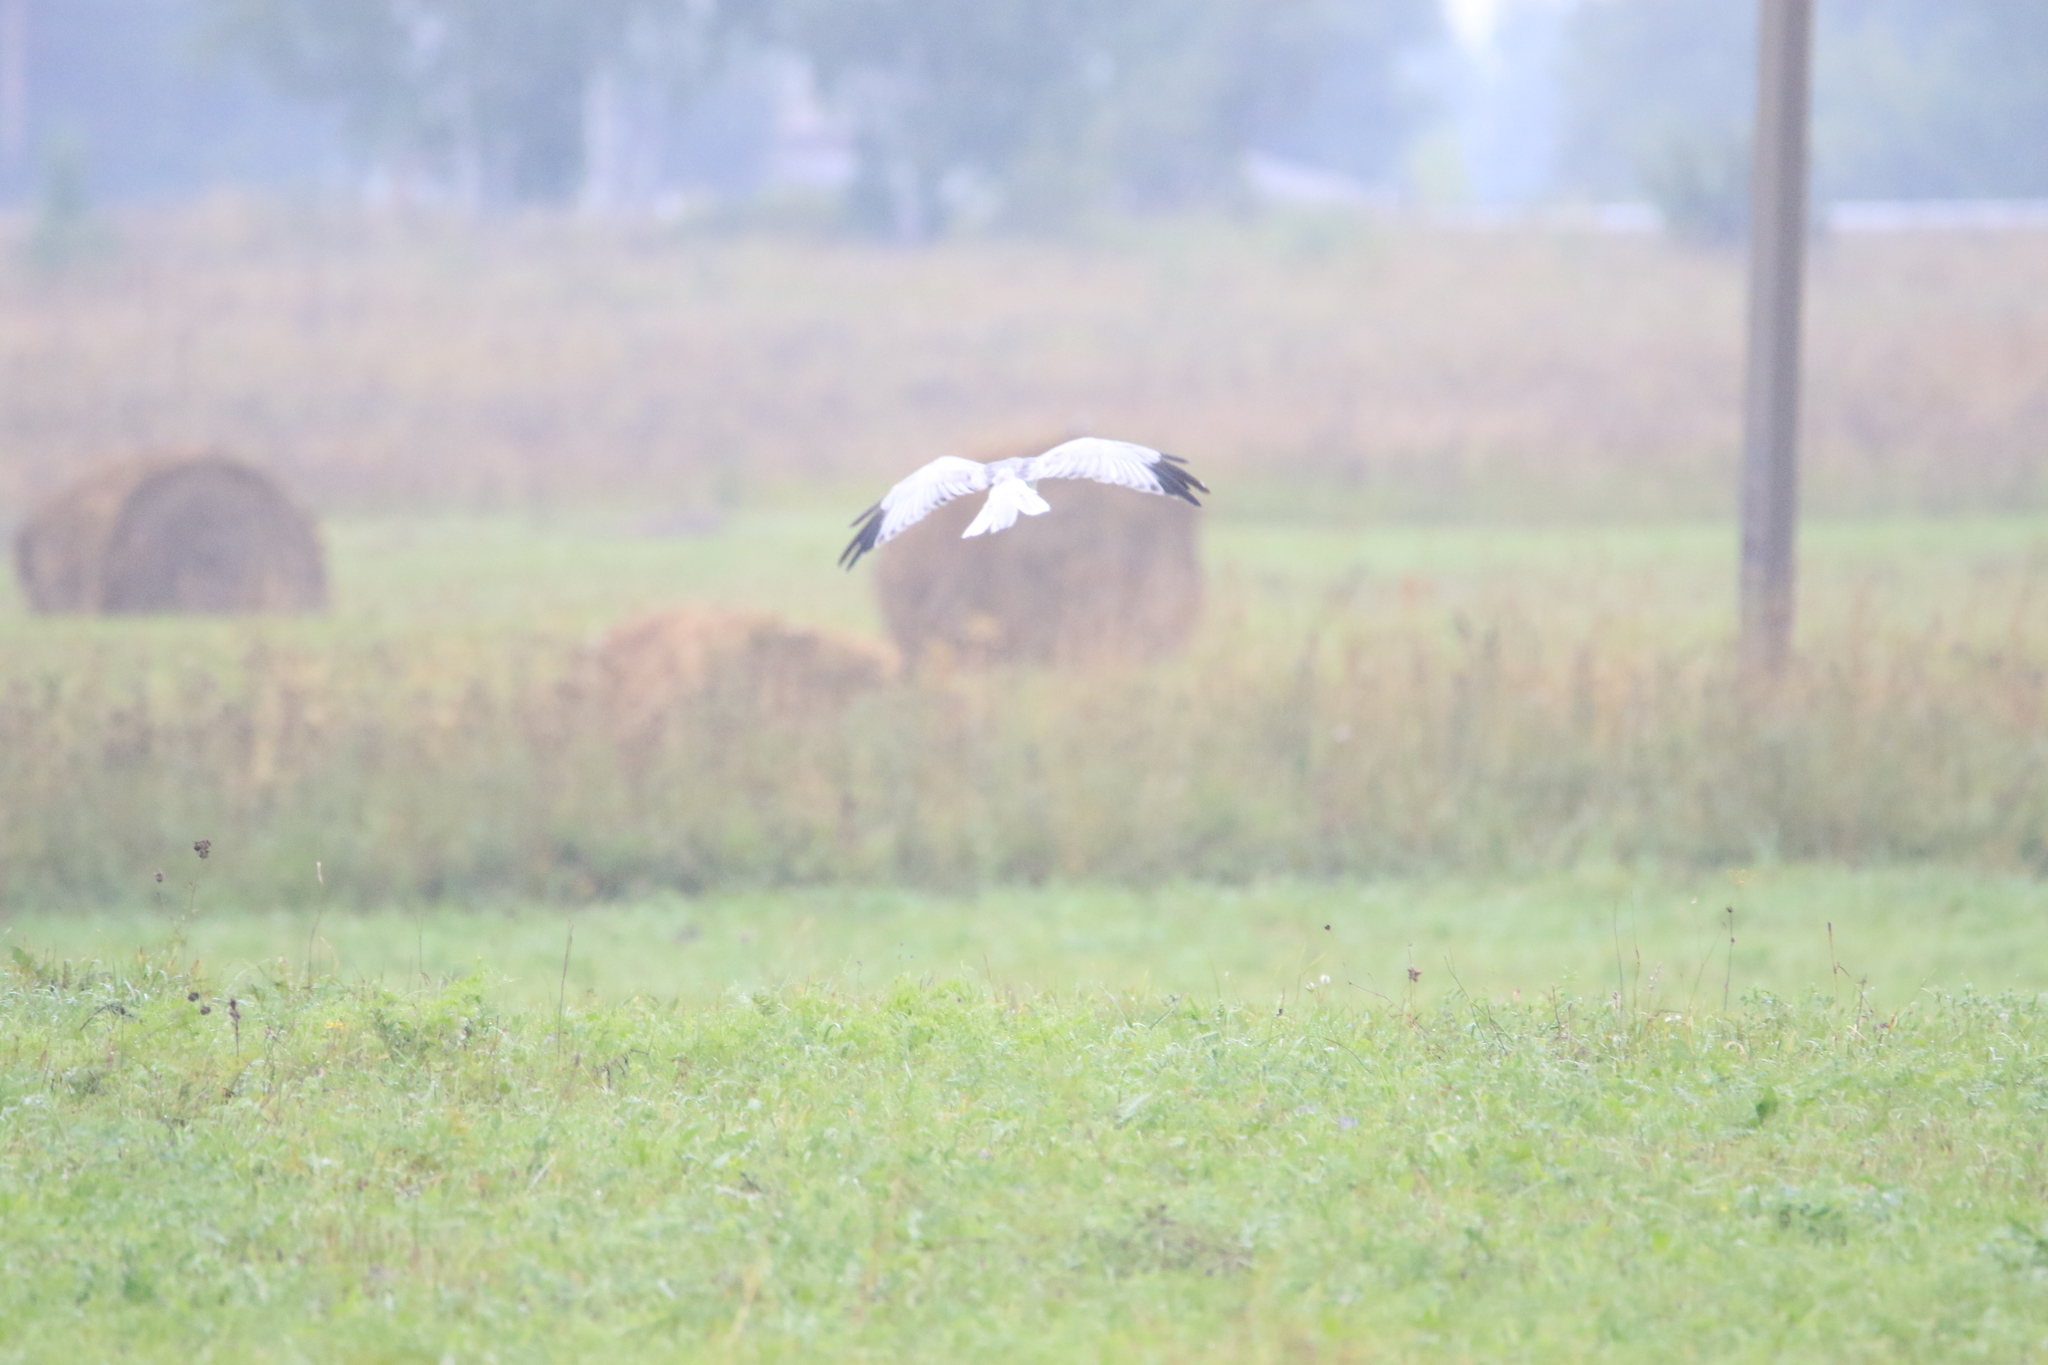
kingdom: Animalia
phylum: Chordata
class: Aves
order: Accipitriformes
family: Accipitridae
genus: Circus
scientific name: Circus cyaneus
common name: Hen harrier
